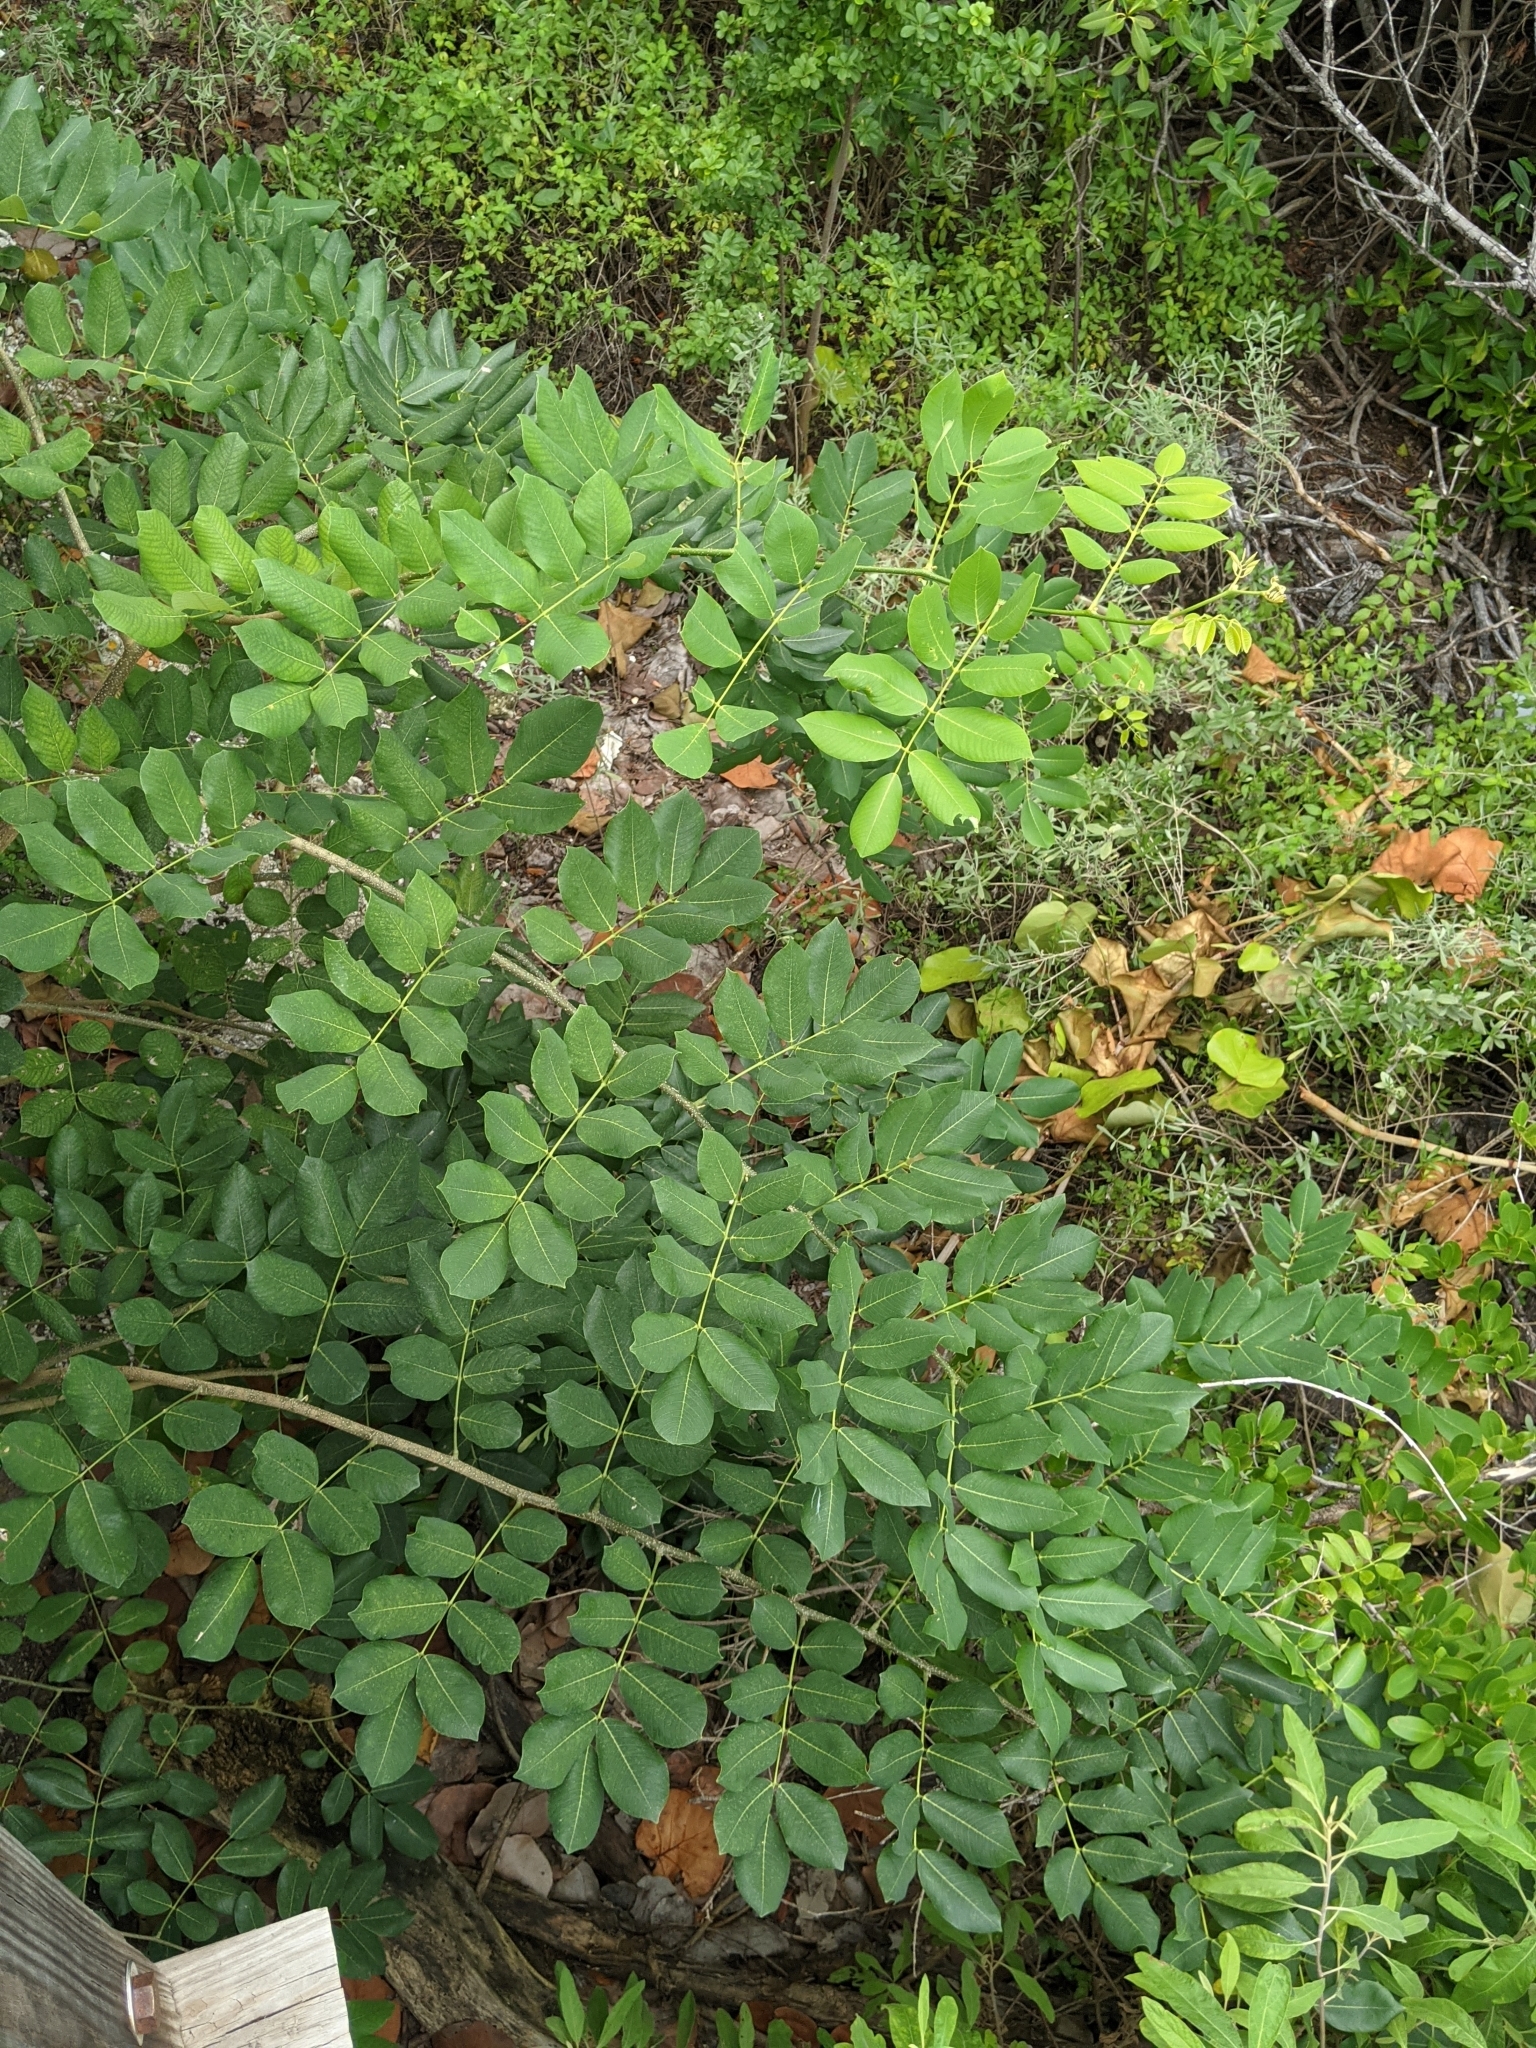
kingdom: Plantae
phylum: Tracheophyta
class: Magnoliopsida
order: Fabales
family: Fabaceae
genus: Piscidia
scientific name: Piscidia piscipula
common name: Florida fishpoison tree
